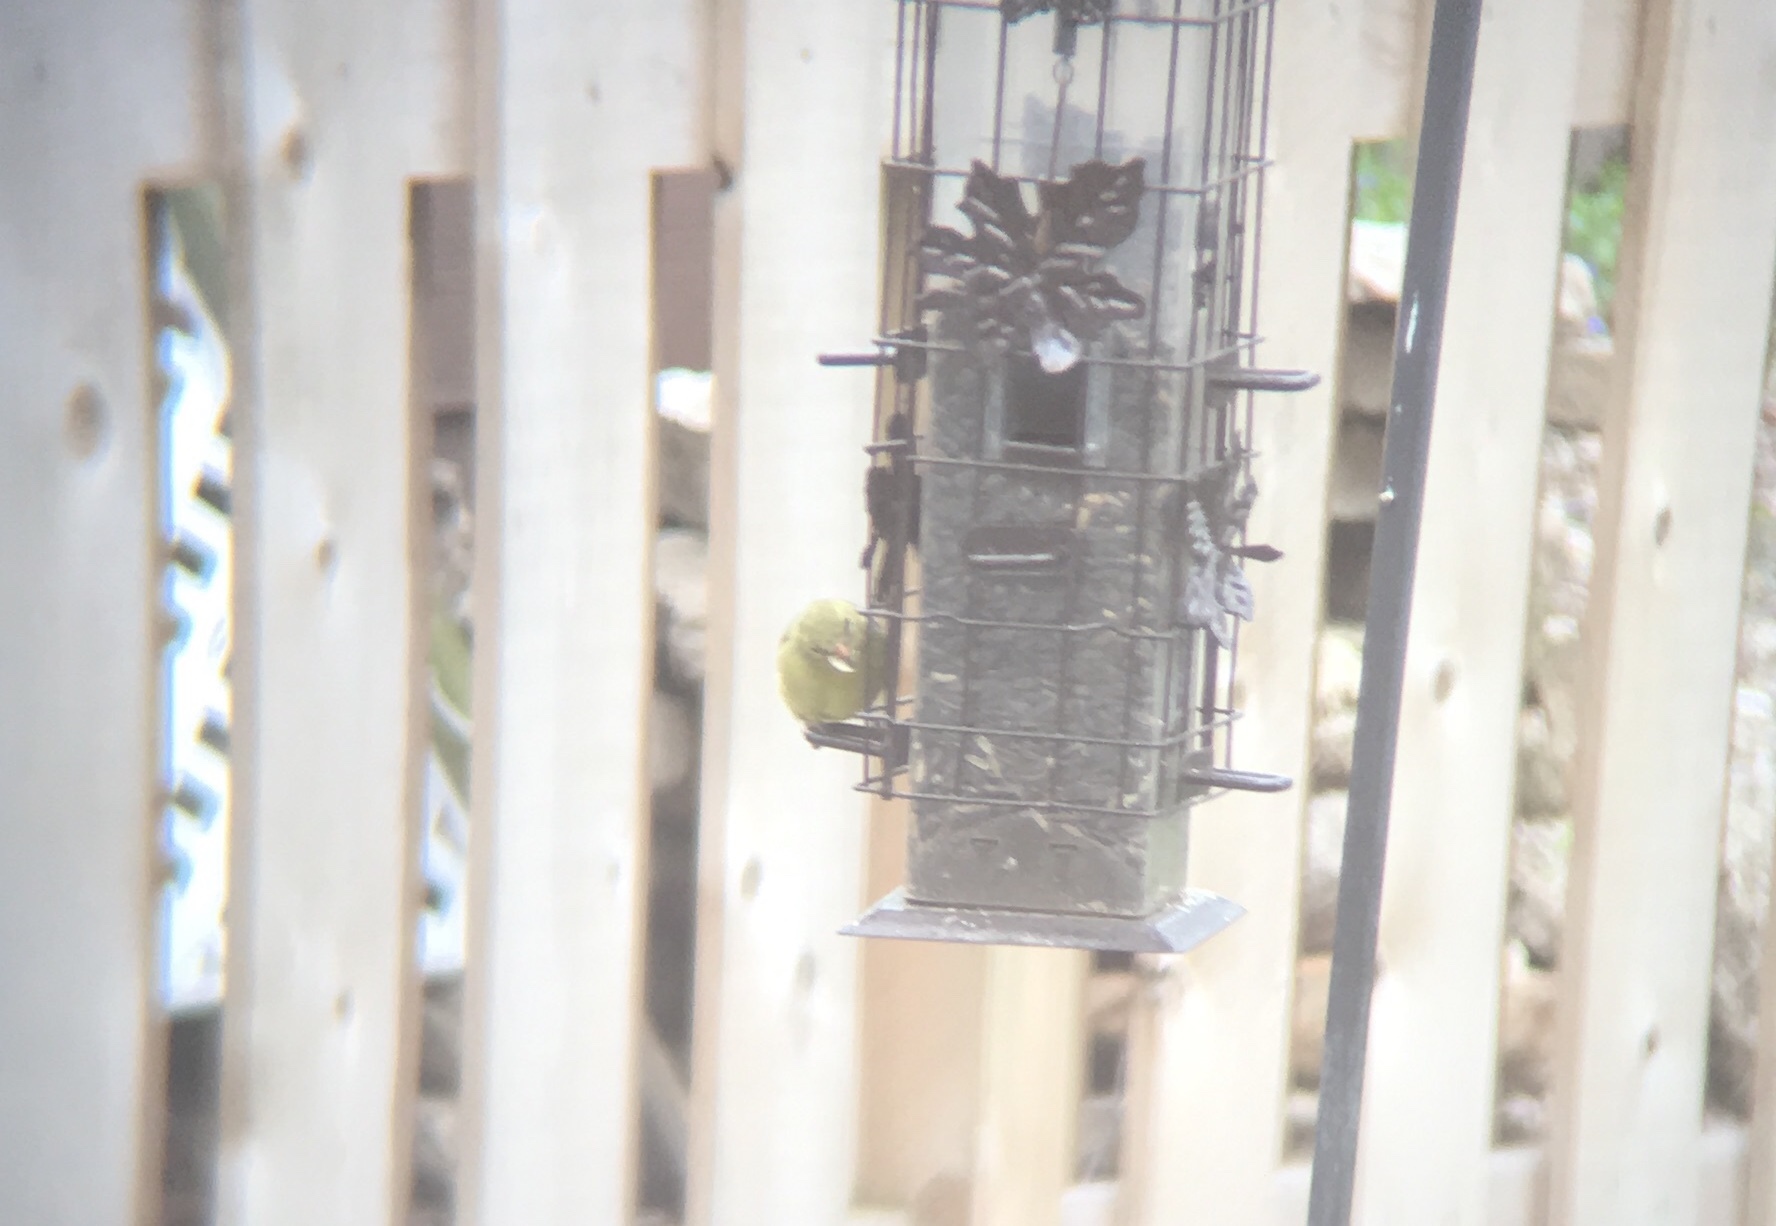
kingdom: Animalia
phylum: Chordata
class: Aves
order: Passeriformes
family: Fringillidae
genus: Spinus
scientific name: Spinus tristis
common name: American goldfinch
